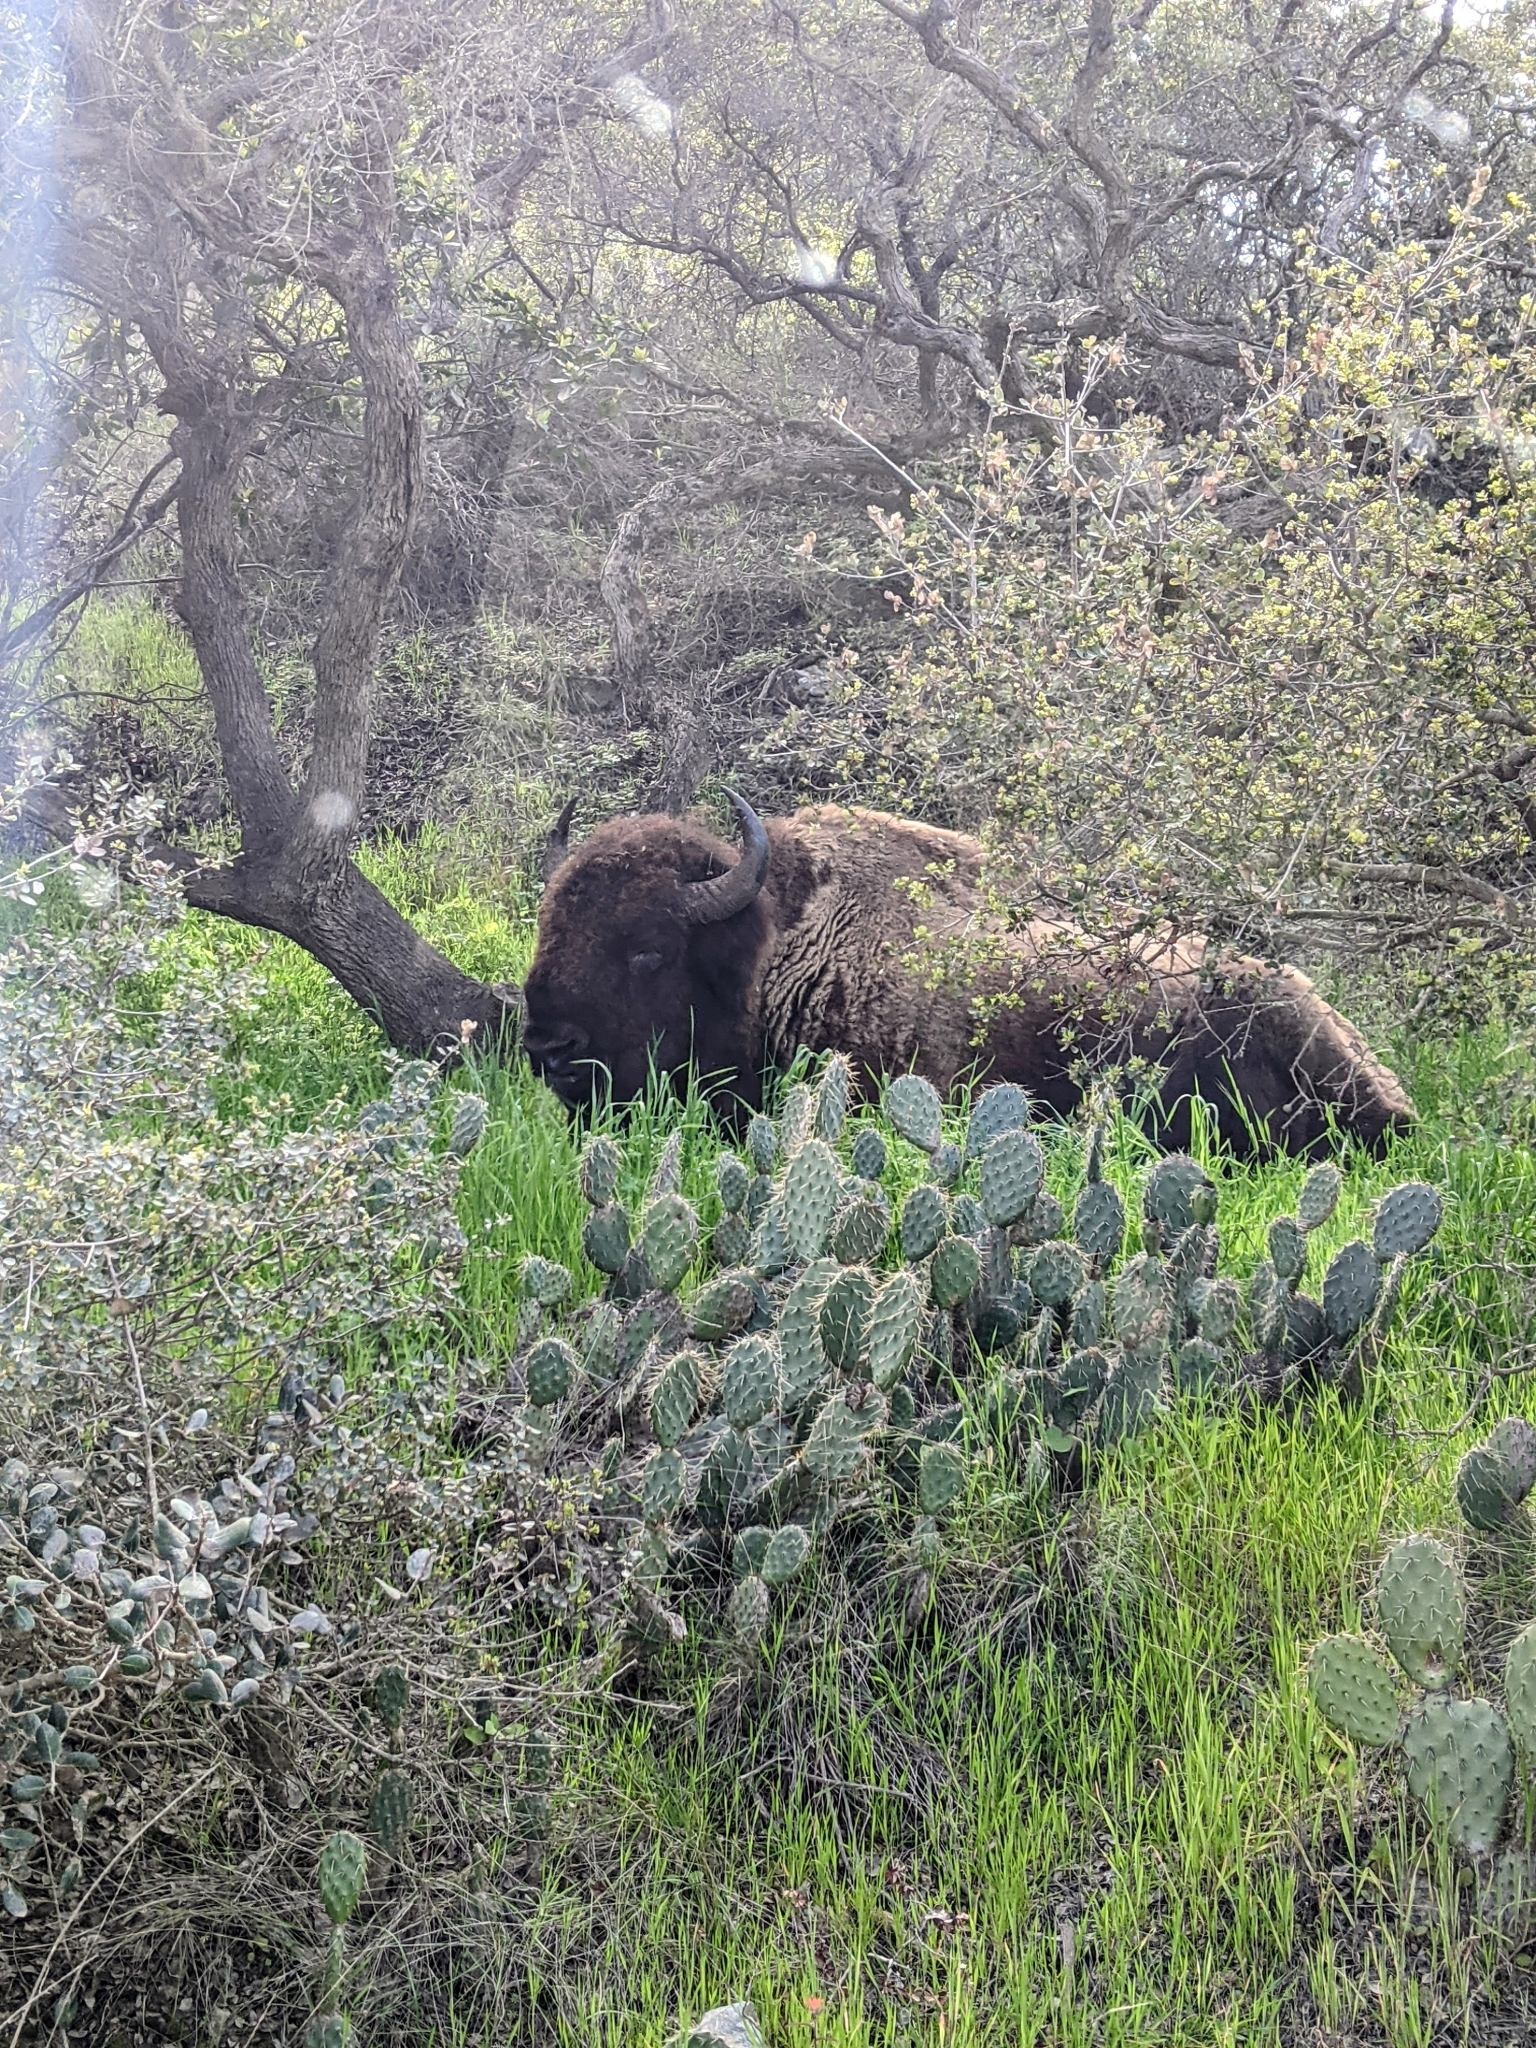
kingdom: Animalia
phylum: Chordata
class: Mammalia
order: Artiodactyla
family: Bovidae
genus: Bison
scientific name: Bison bison
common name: American bison
